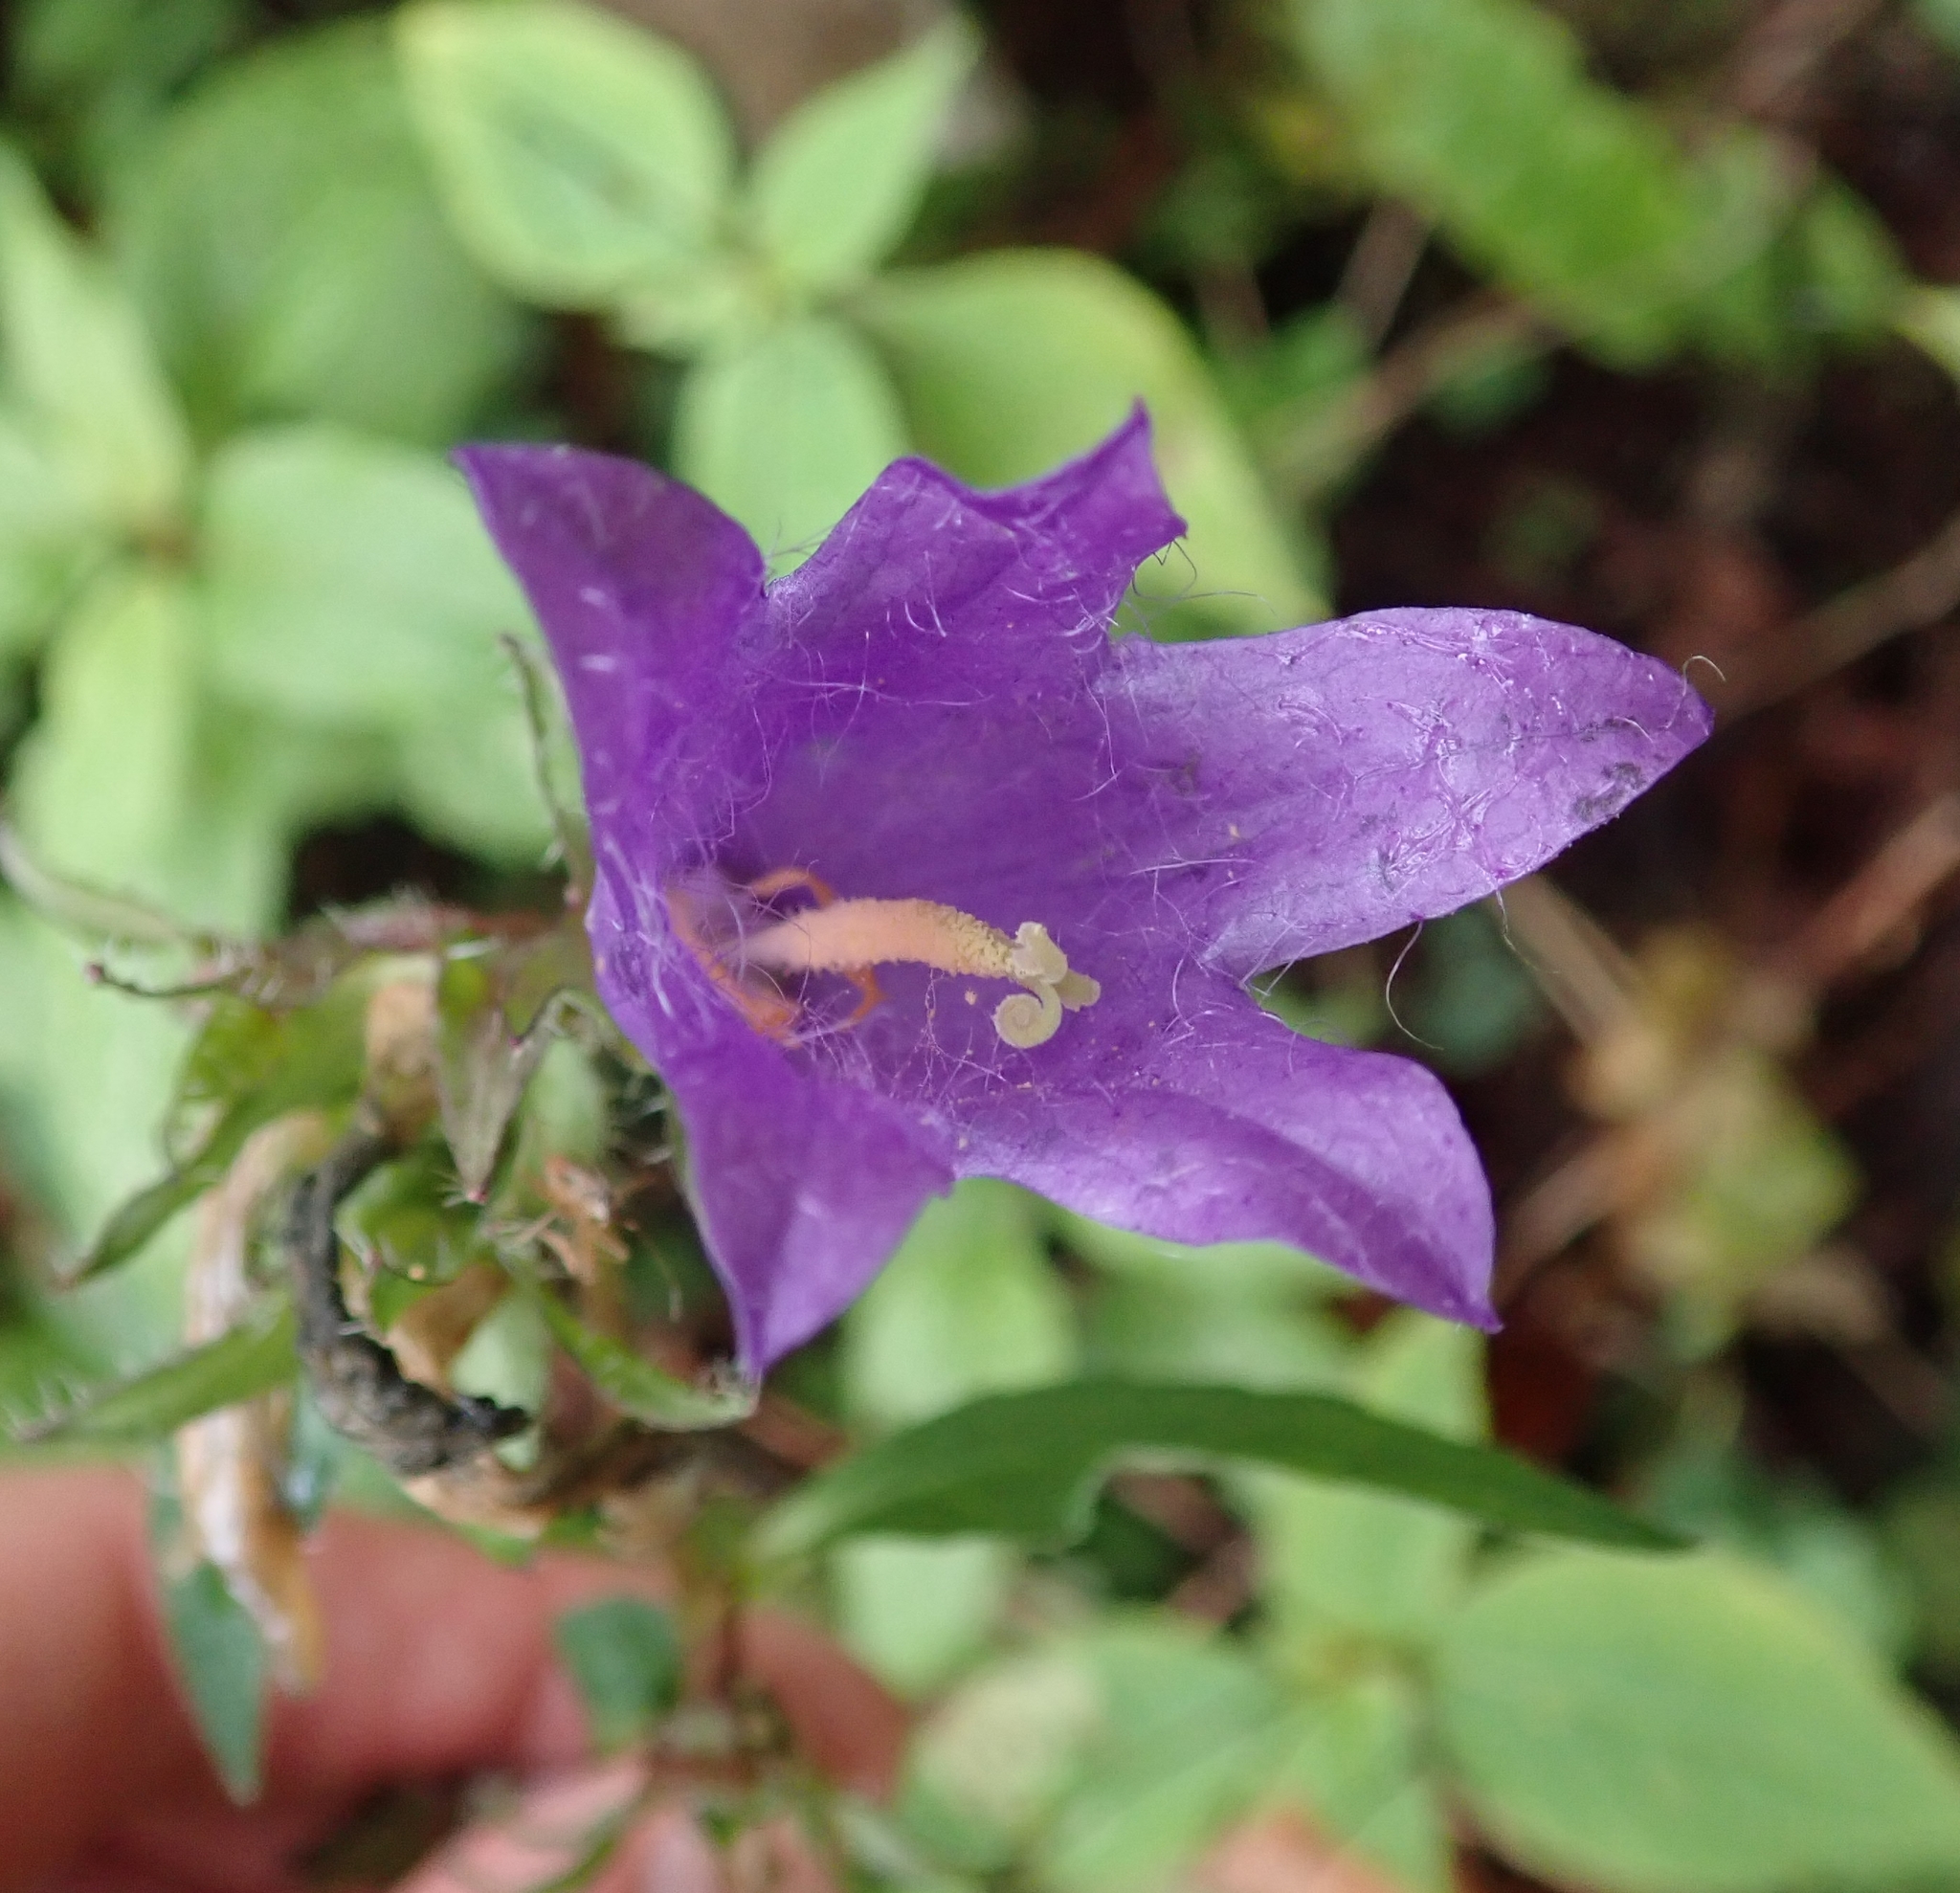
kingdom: Plantae
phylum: Tracheophyta
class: Magnoliopsida
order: Asterales
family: Campanulaceae
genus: Campanula
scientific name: Campanula trachelium
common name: Nettle-leaved bellflower
